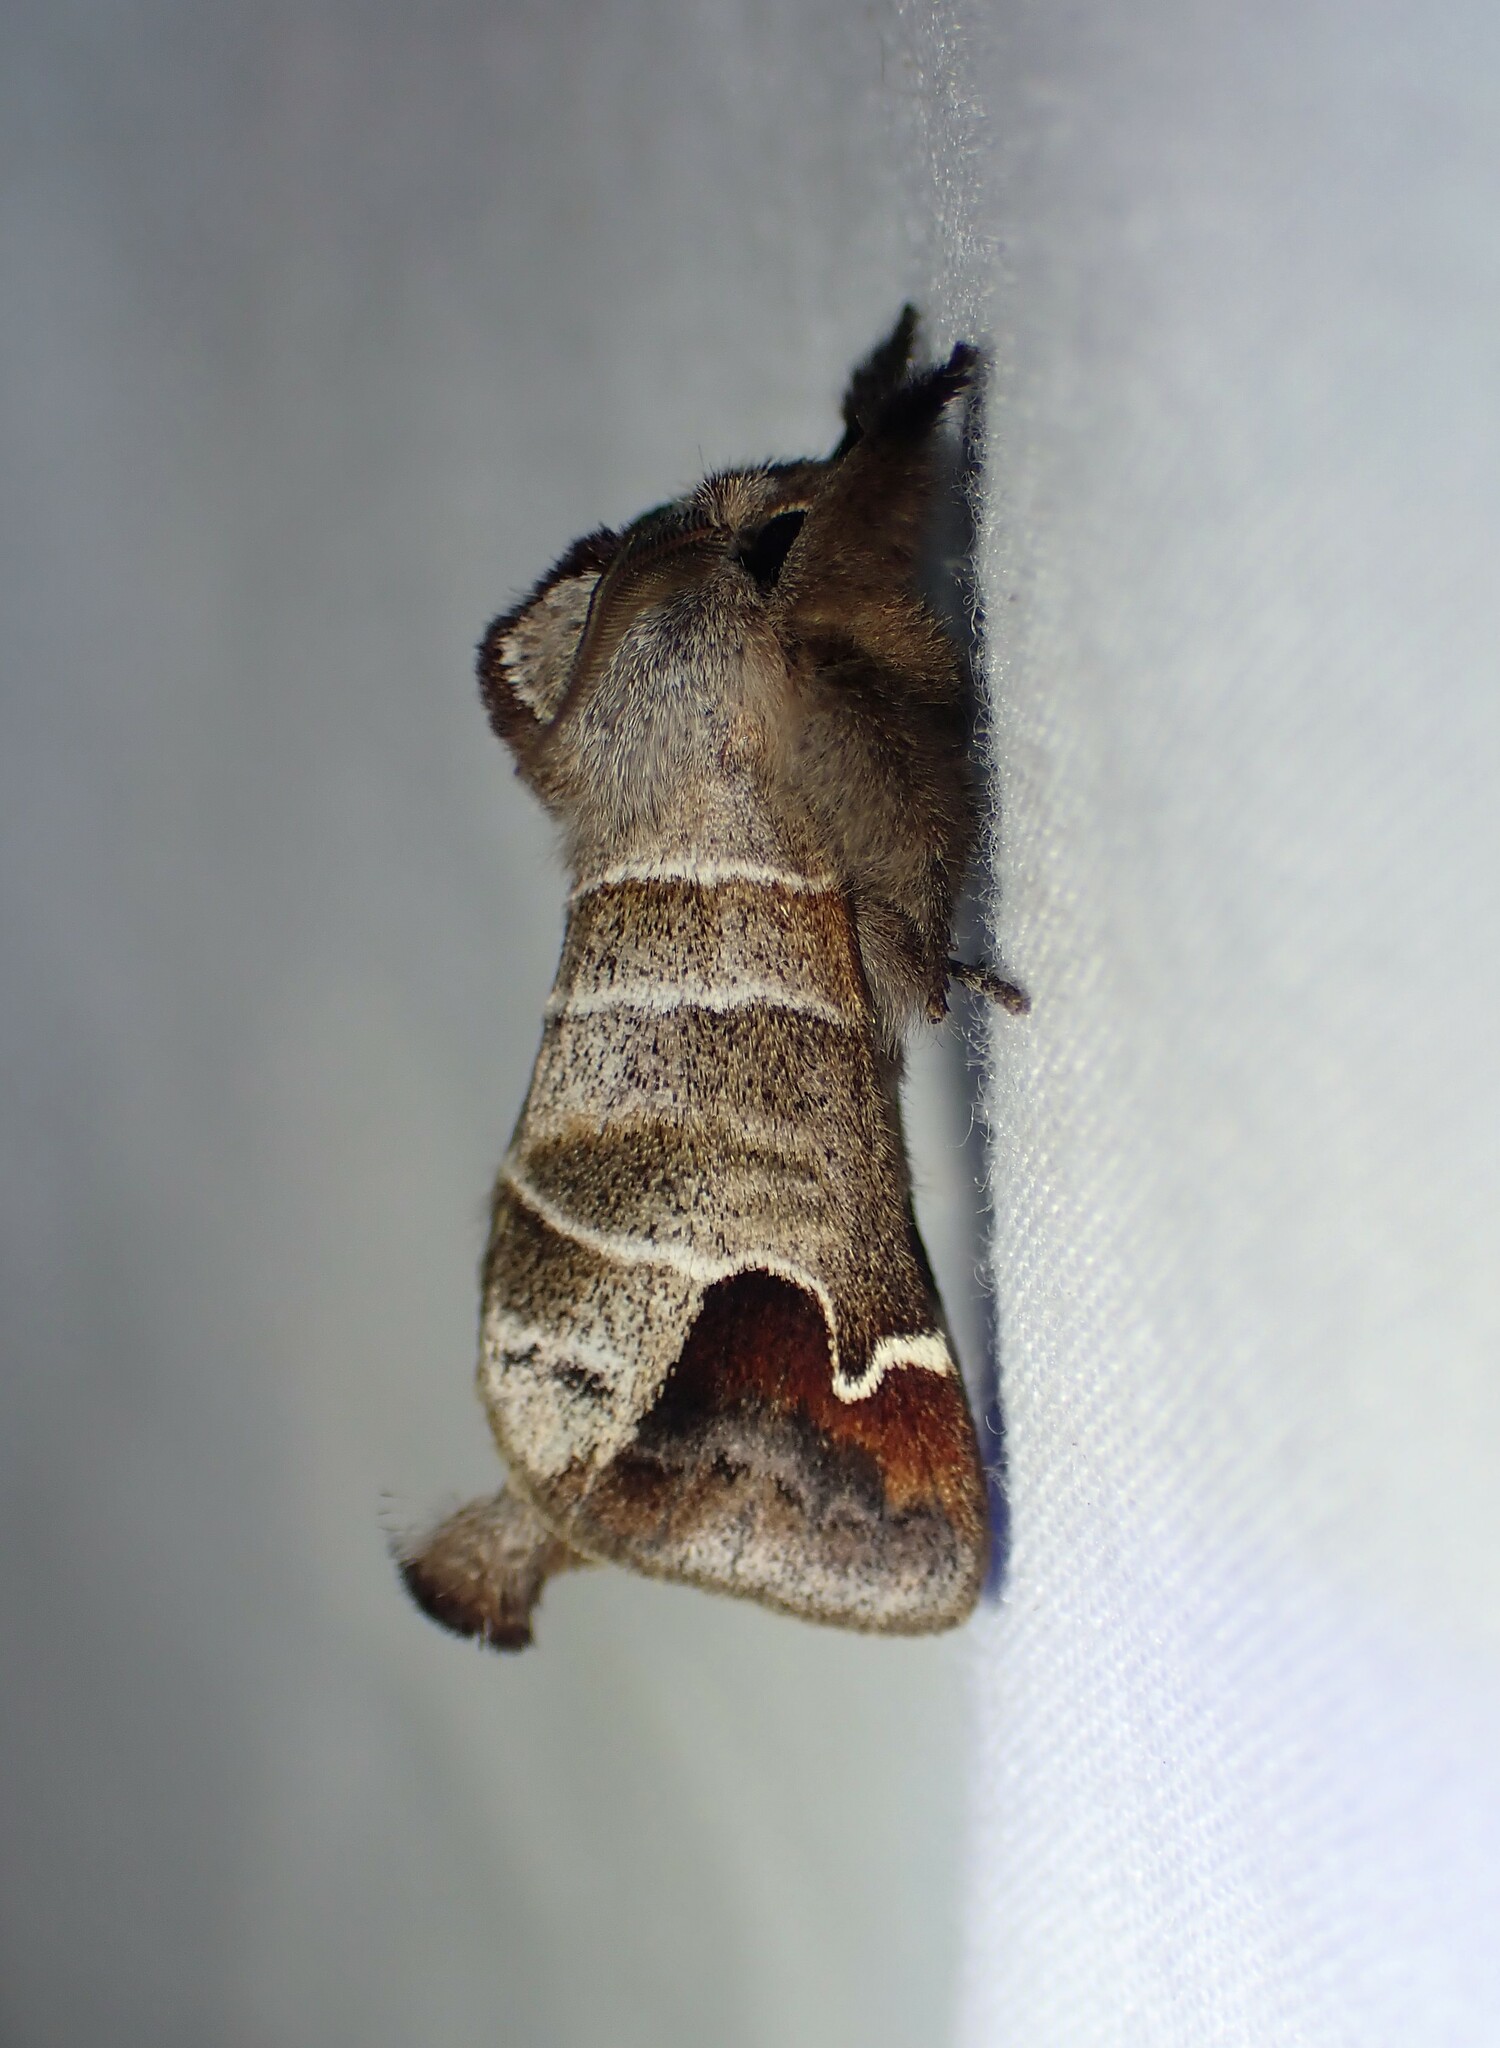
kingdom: Animalia
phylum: Arthropoda
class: Insecta
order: Lepidoptera
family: Notodontidae
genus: Clostera
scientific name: Clostera albosigma
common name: Sigmoid prominent
